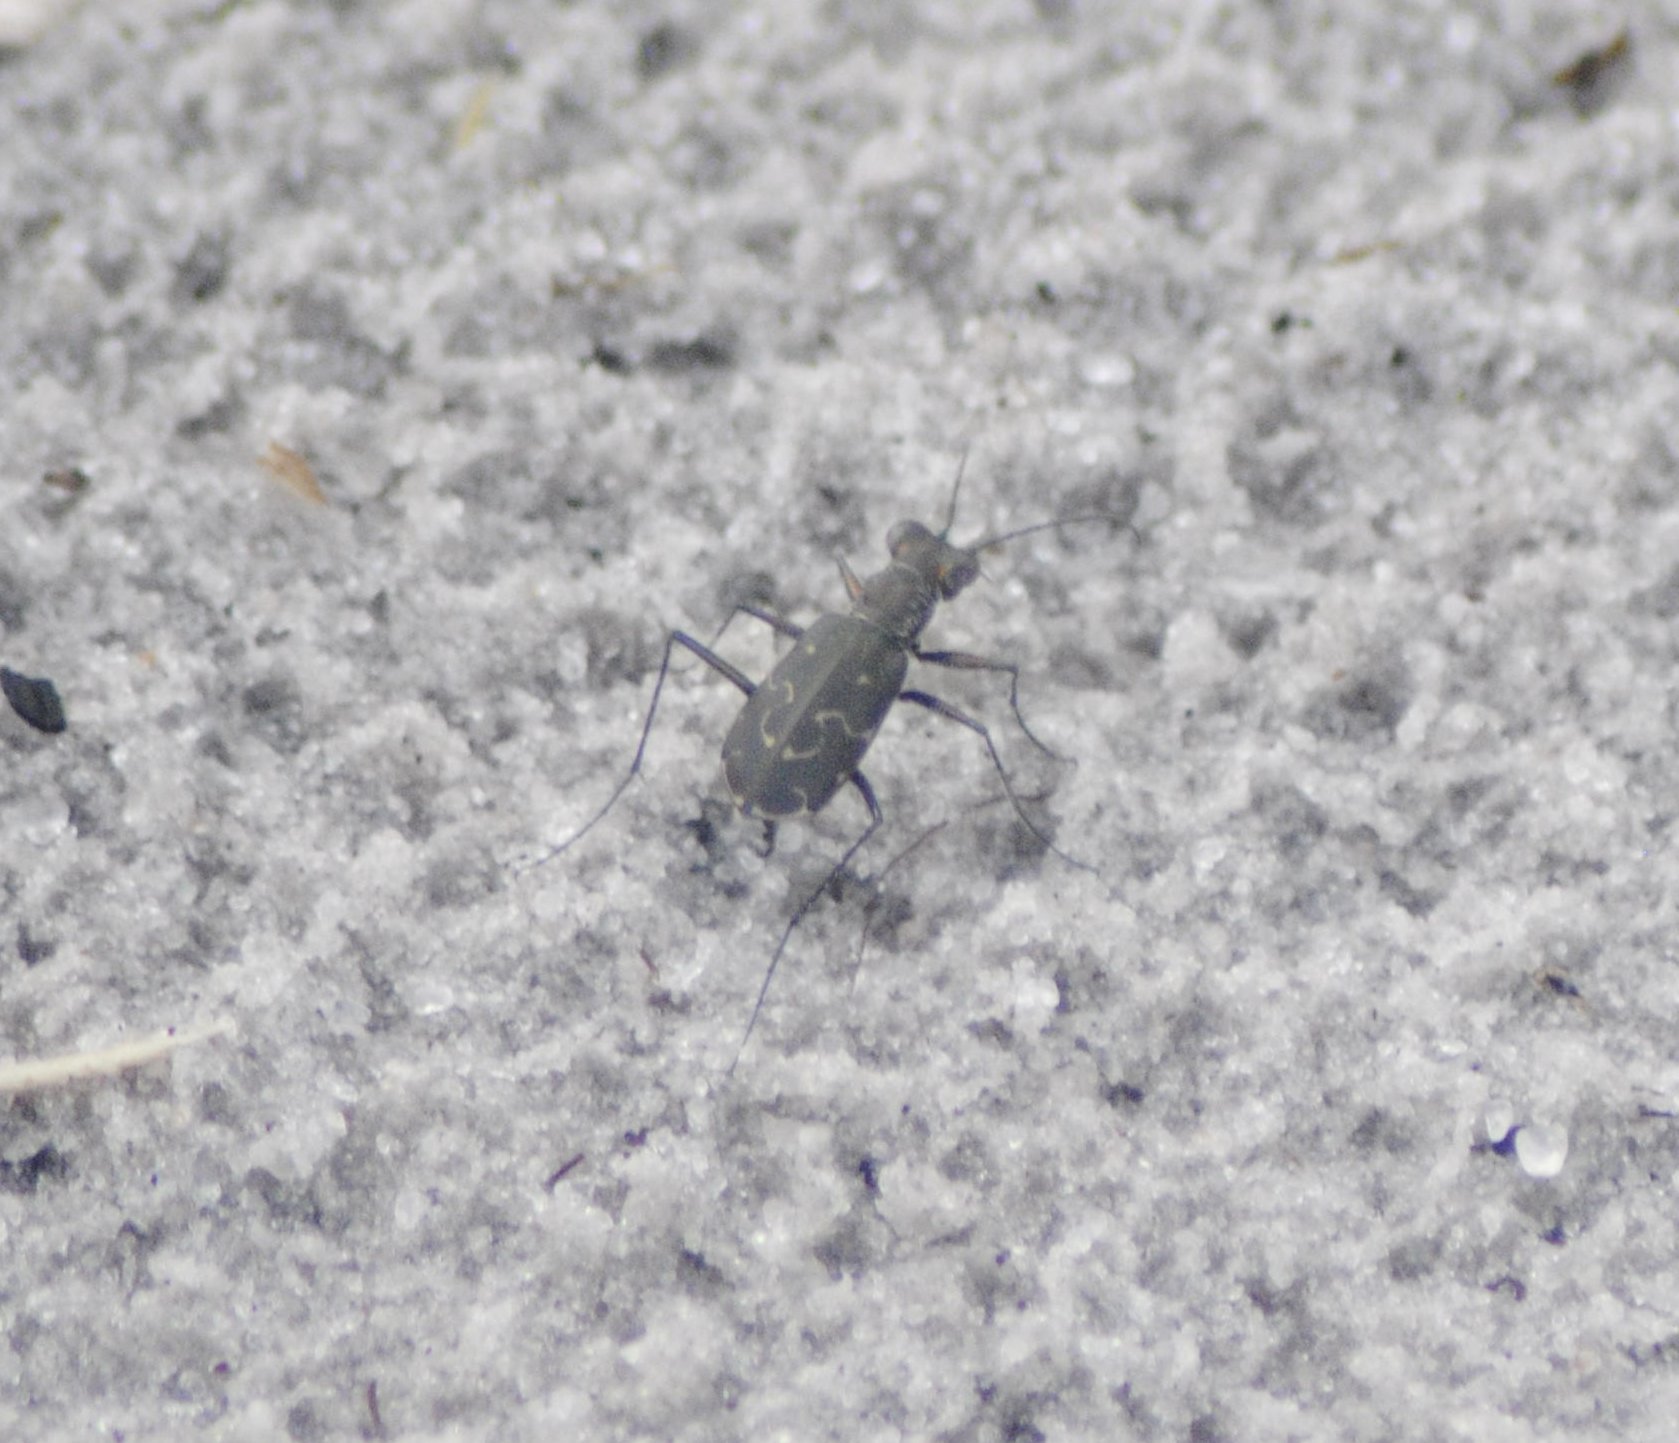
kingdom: Animalia
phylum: Arthropoda
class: Insecta
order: Coleoptera
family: Carabidae
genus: Cicindela
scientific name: Cicindela trifasciata
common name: Mudflat tiger beetle
